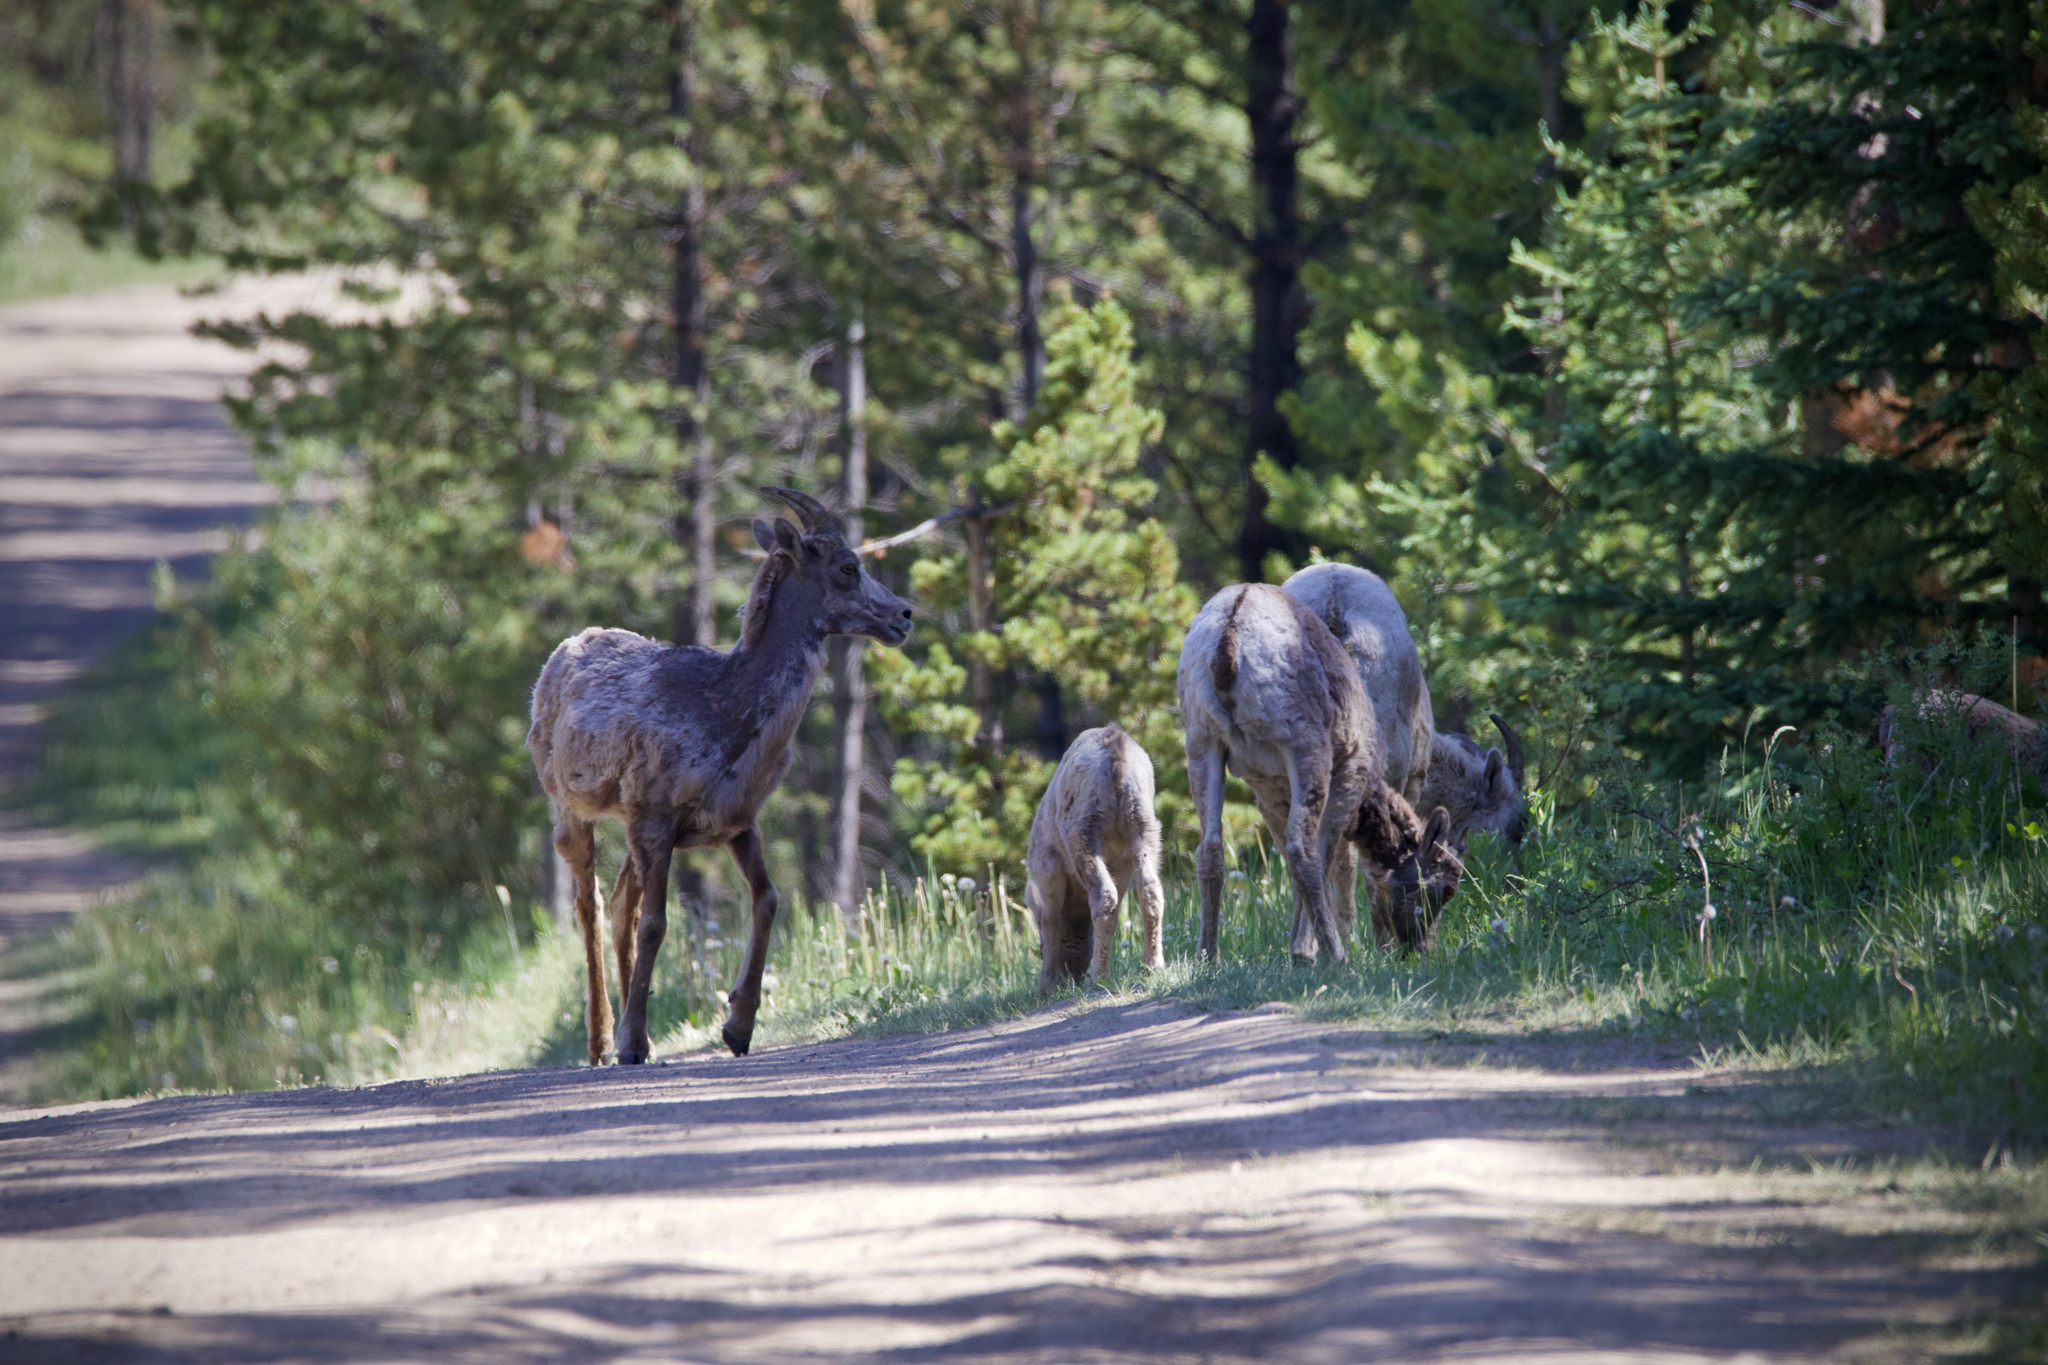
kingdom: Animalia
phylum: Chordata
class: Mammalia
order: Artiodactyla
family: Bovidae
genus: Ovis
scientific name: Ovis canadensis
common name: Bighorn sheep
